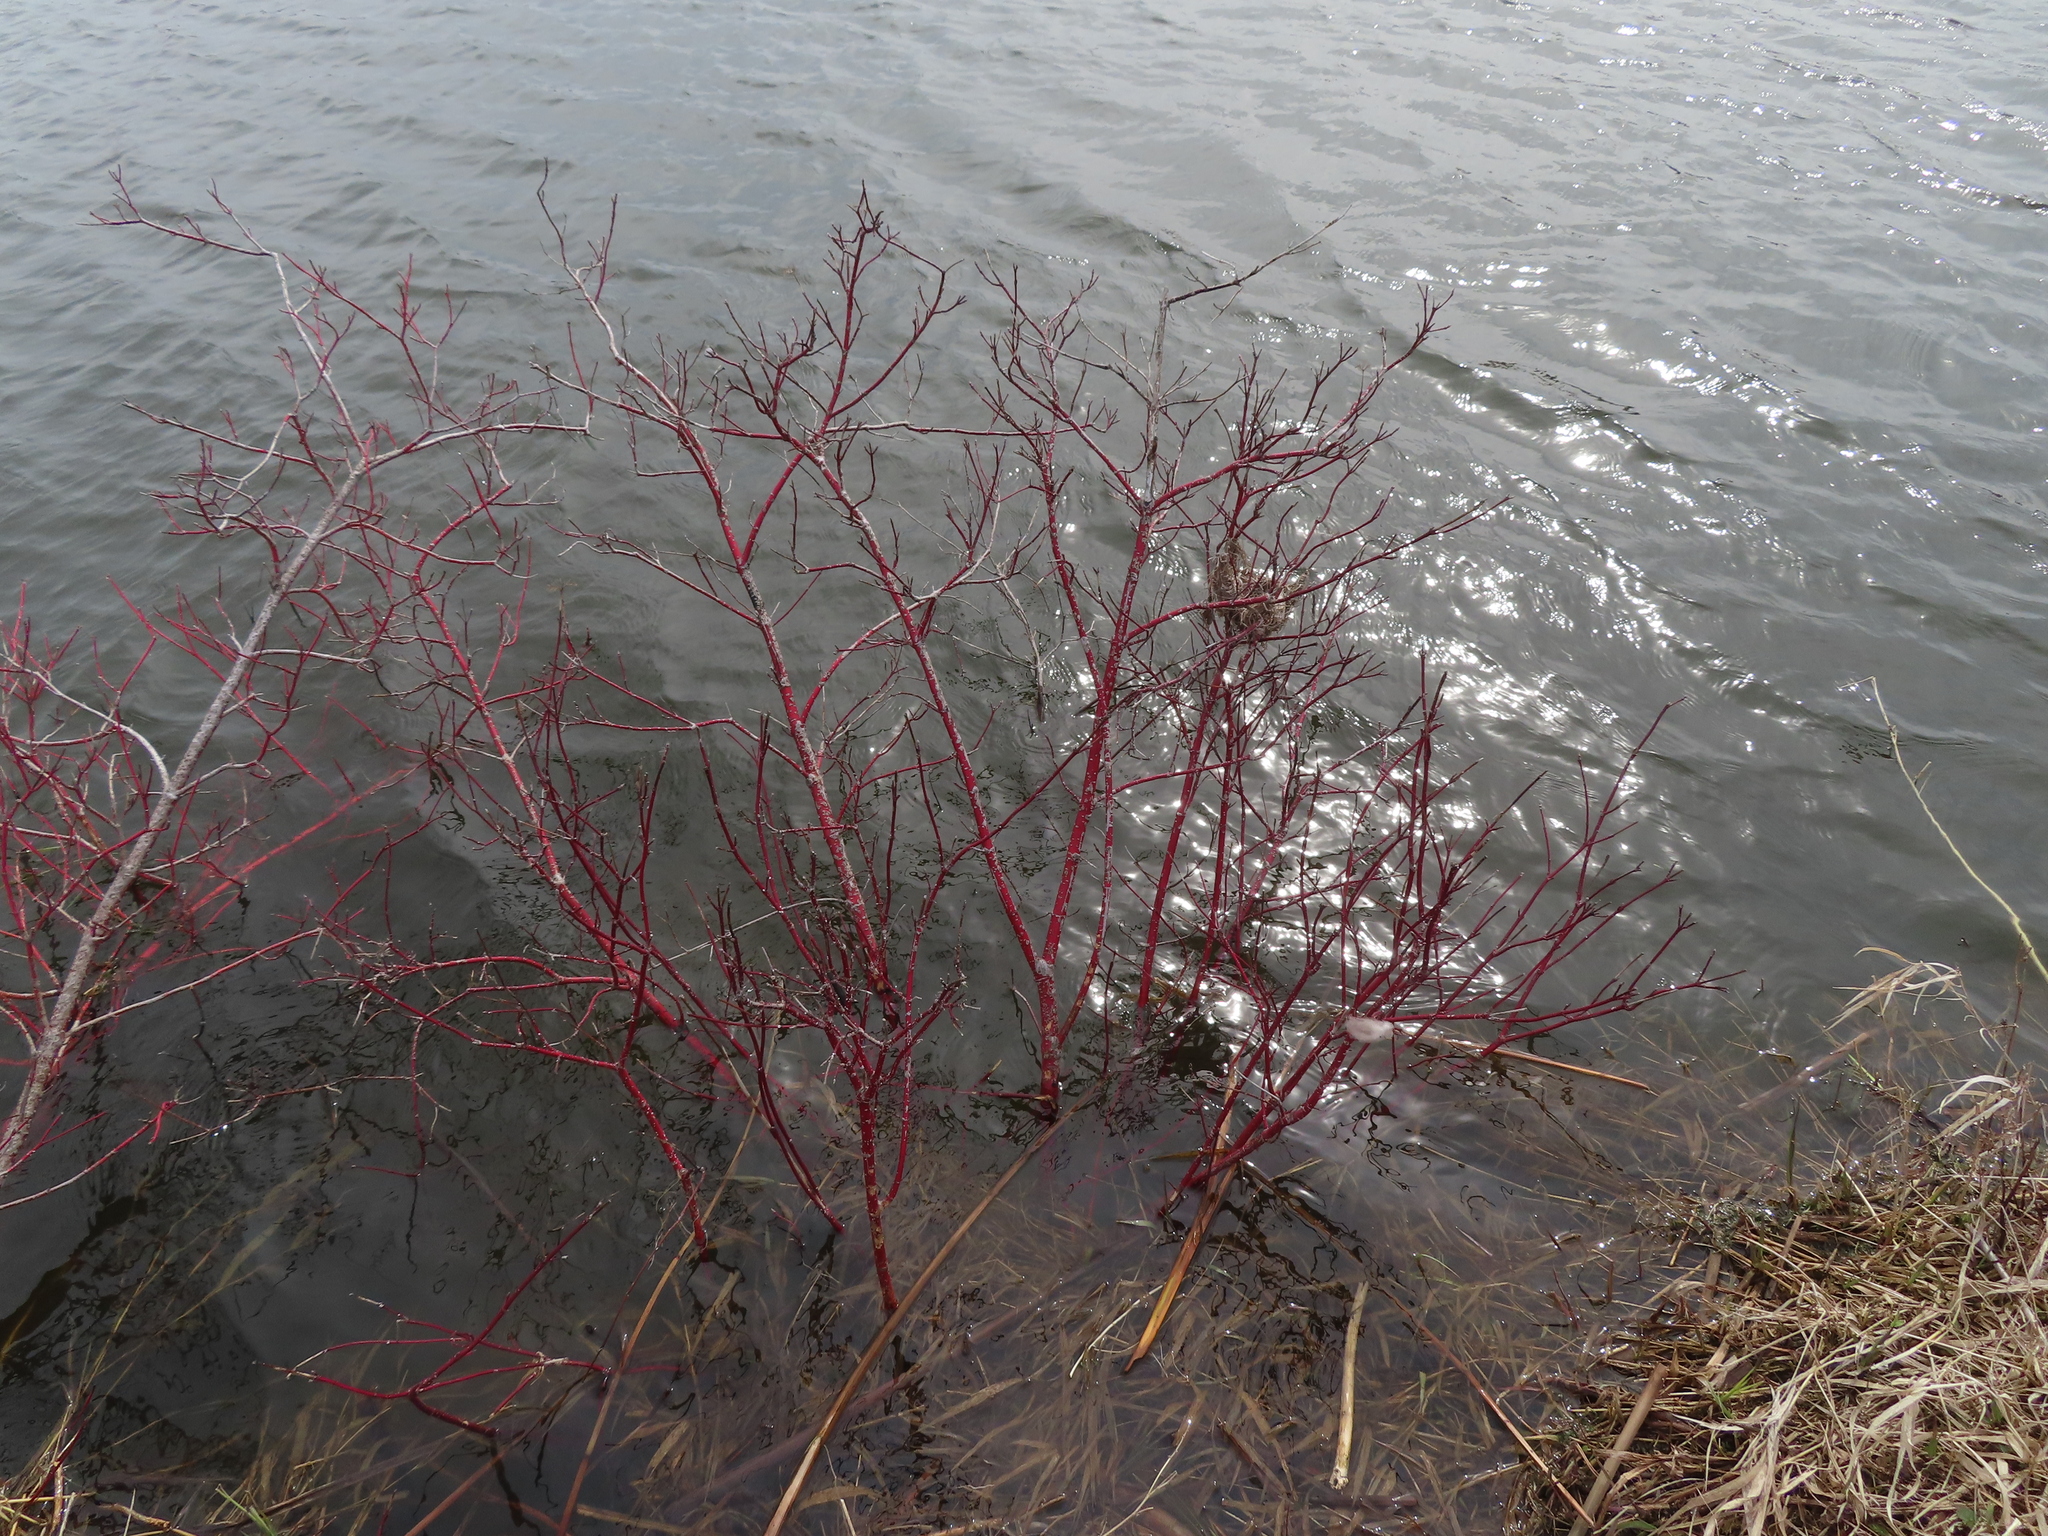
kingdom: Plantae
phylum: Tracheophyta
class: Magnoliopsida
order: Cornales
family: Cornaceae
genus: Cornus
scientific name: Cornus sericea
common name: Red-osier dogwood
